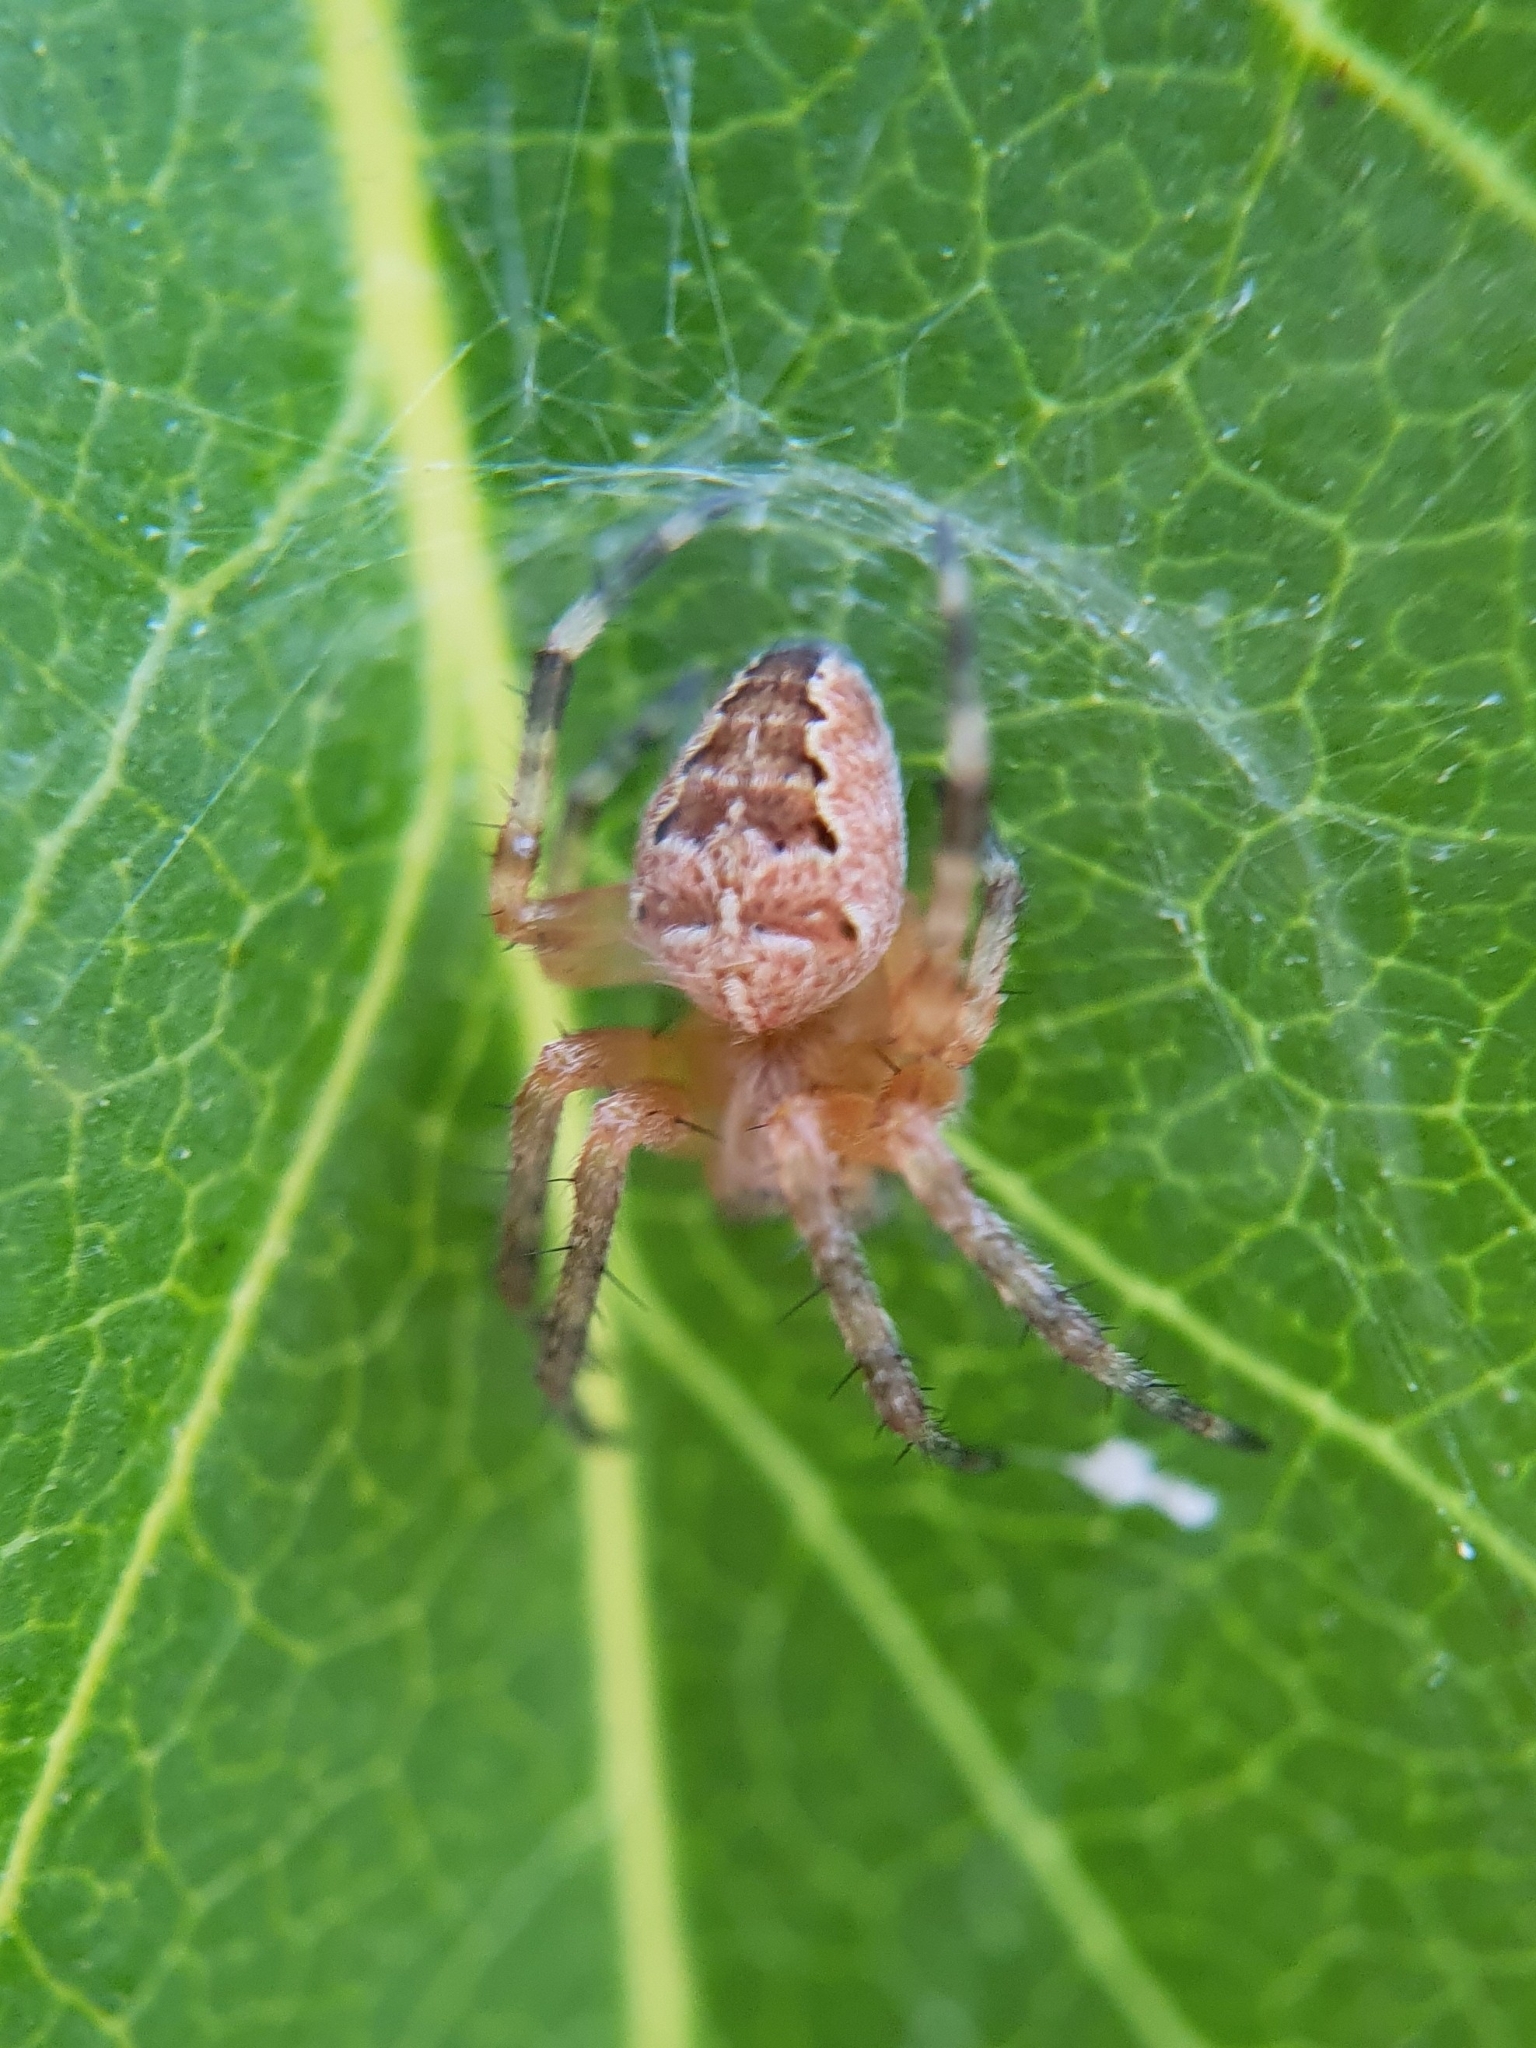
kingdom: Animalia
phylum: Arthropoda
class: Arachnida
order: Araneae
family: Araneidae
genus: Araneus
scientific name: Araneus diadematus
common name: Cross orbweaver
